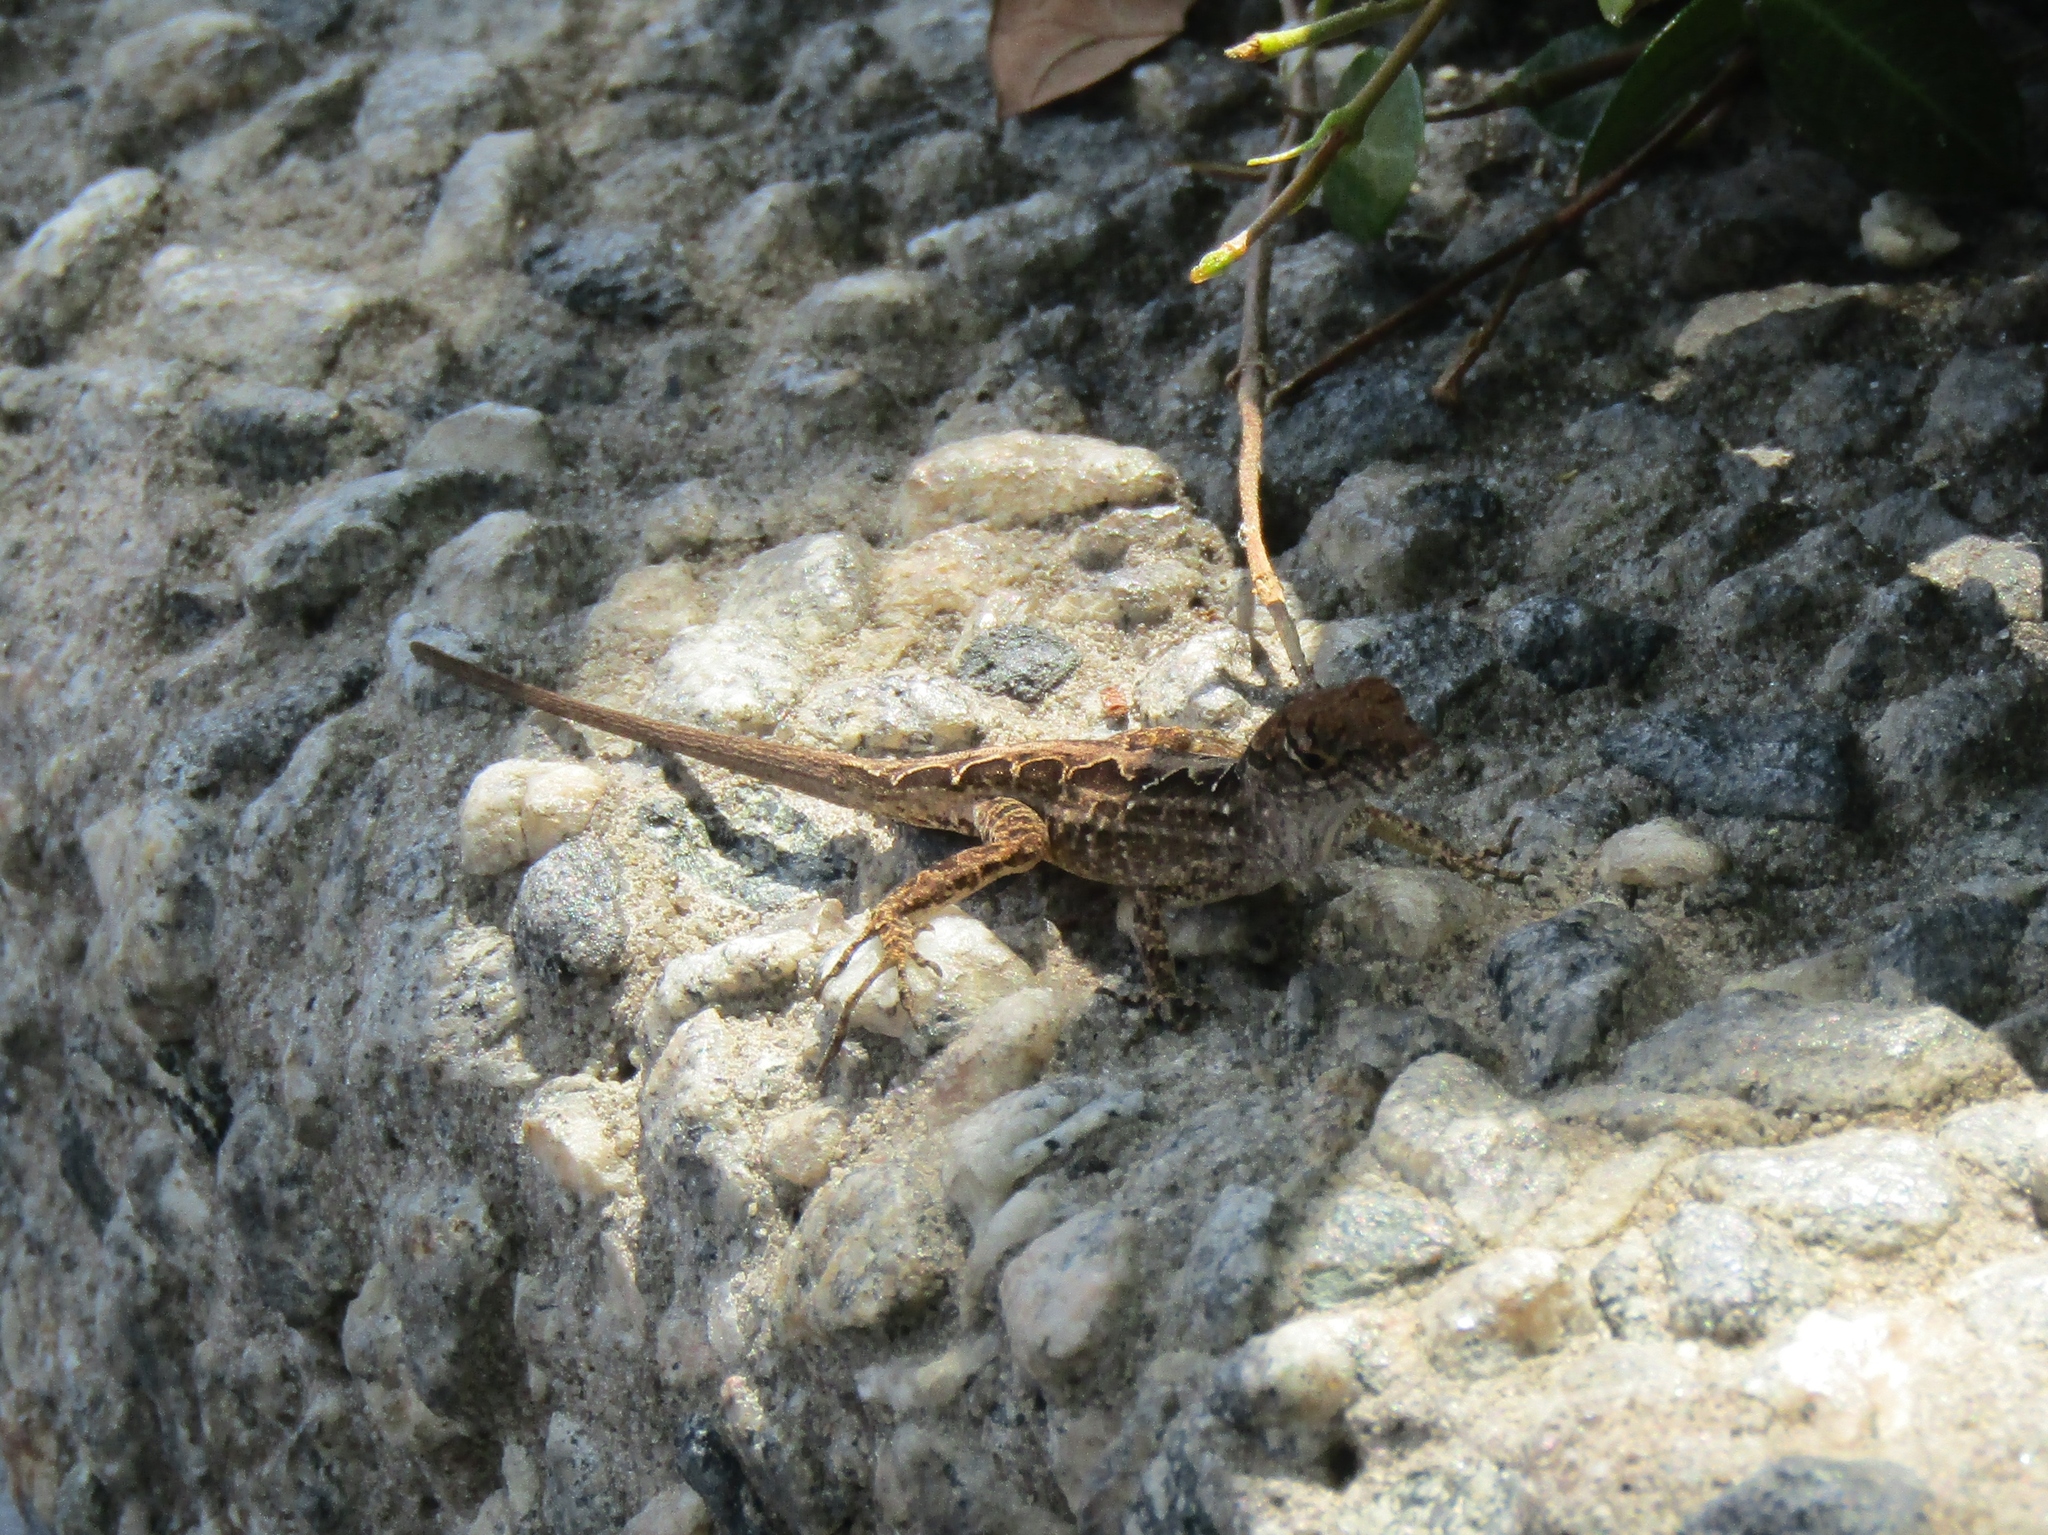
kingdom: Animalia
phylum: Chordata
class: Squamata
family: Dactyloidae
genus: Anolis
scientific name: Anolis sagrei
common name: Brown anole
